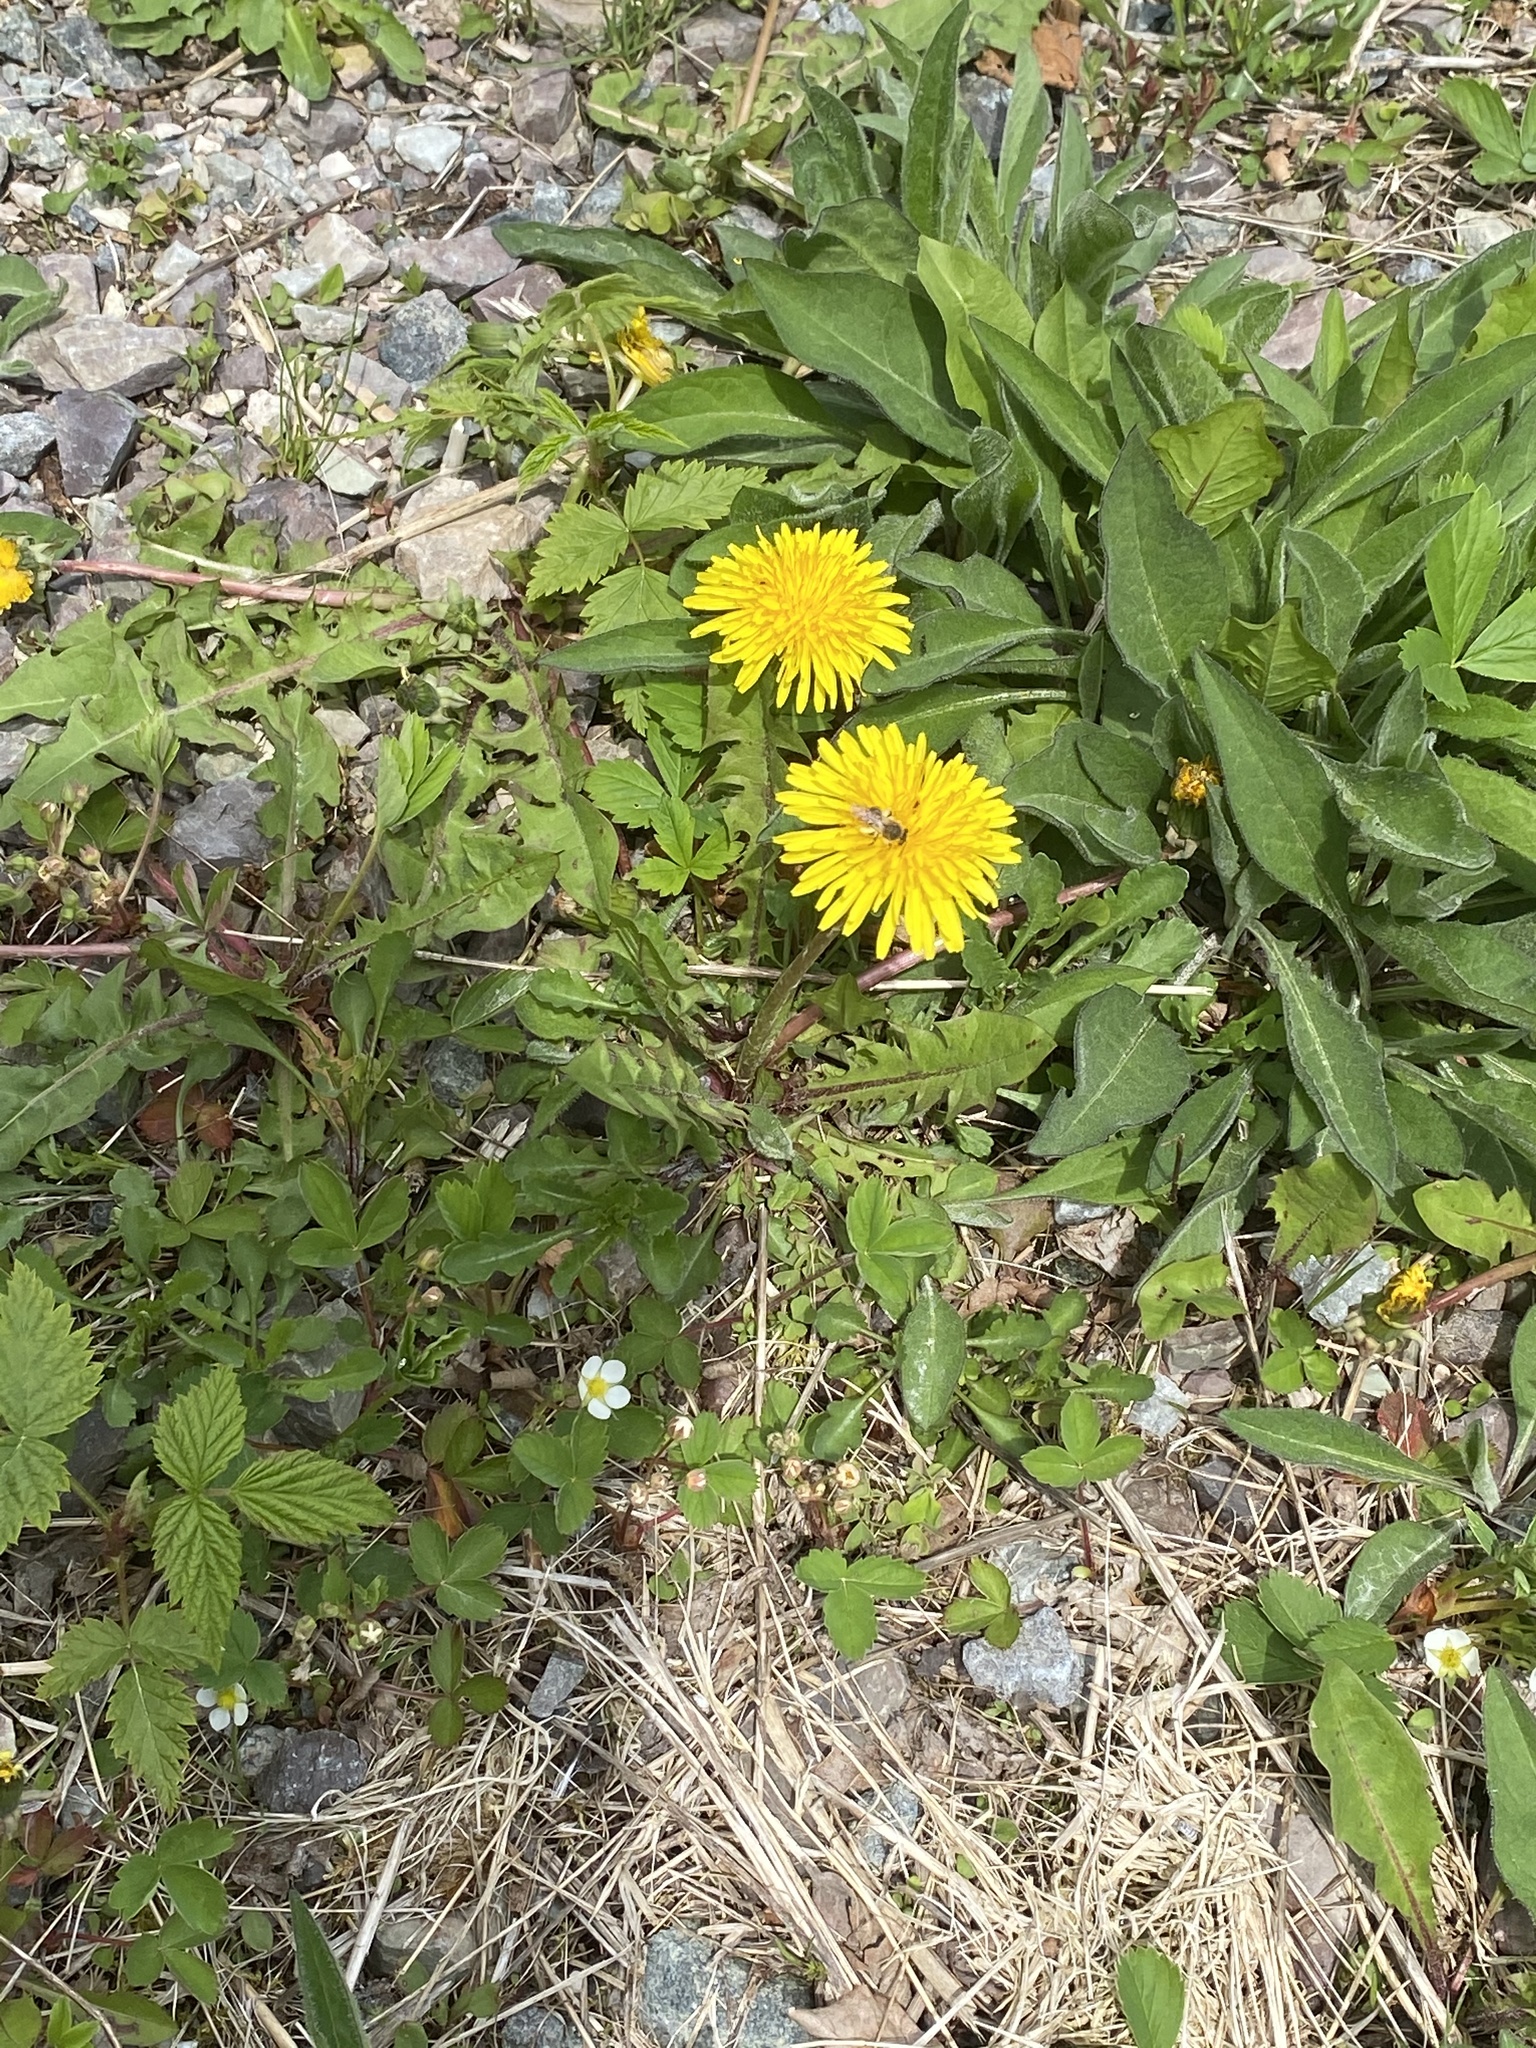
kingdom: Plantae
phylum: Tracheophyta
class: Magnoliopsida
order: Asterales
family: Asteraceae
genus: Taraxacum
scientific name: Taraxacum officinale
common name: Common dandelion
